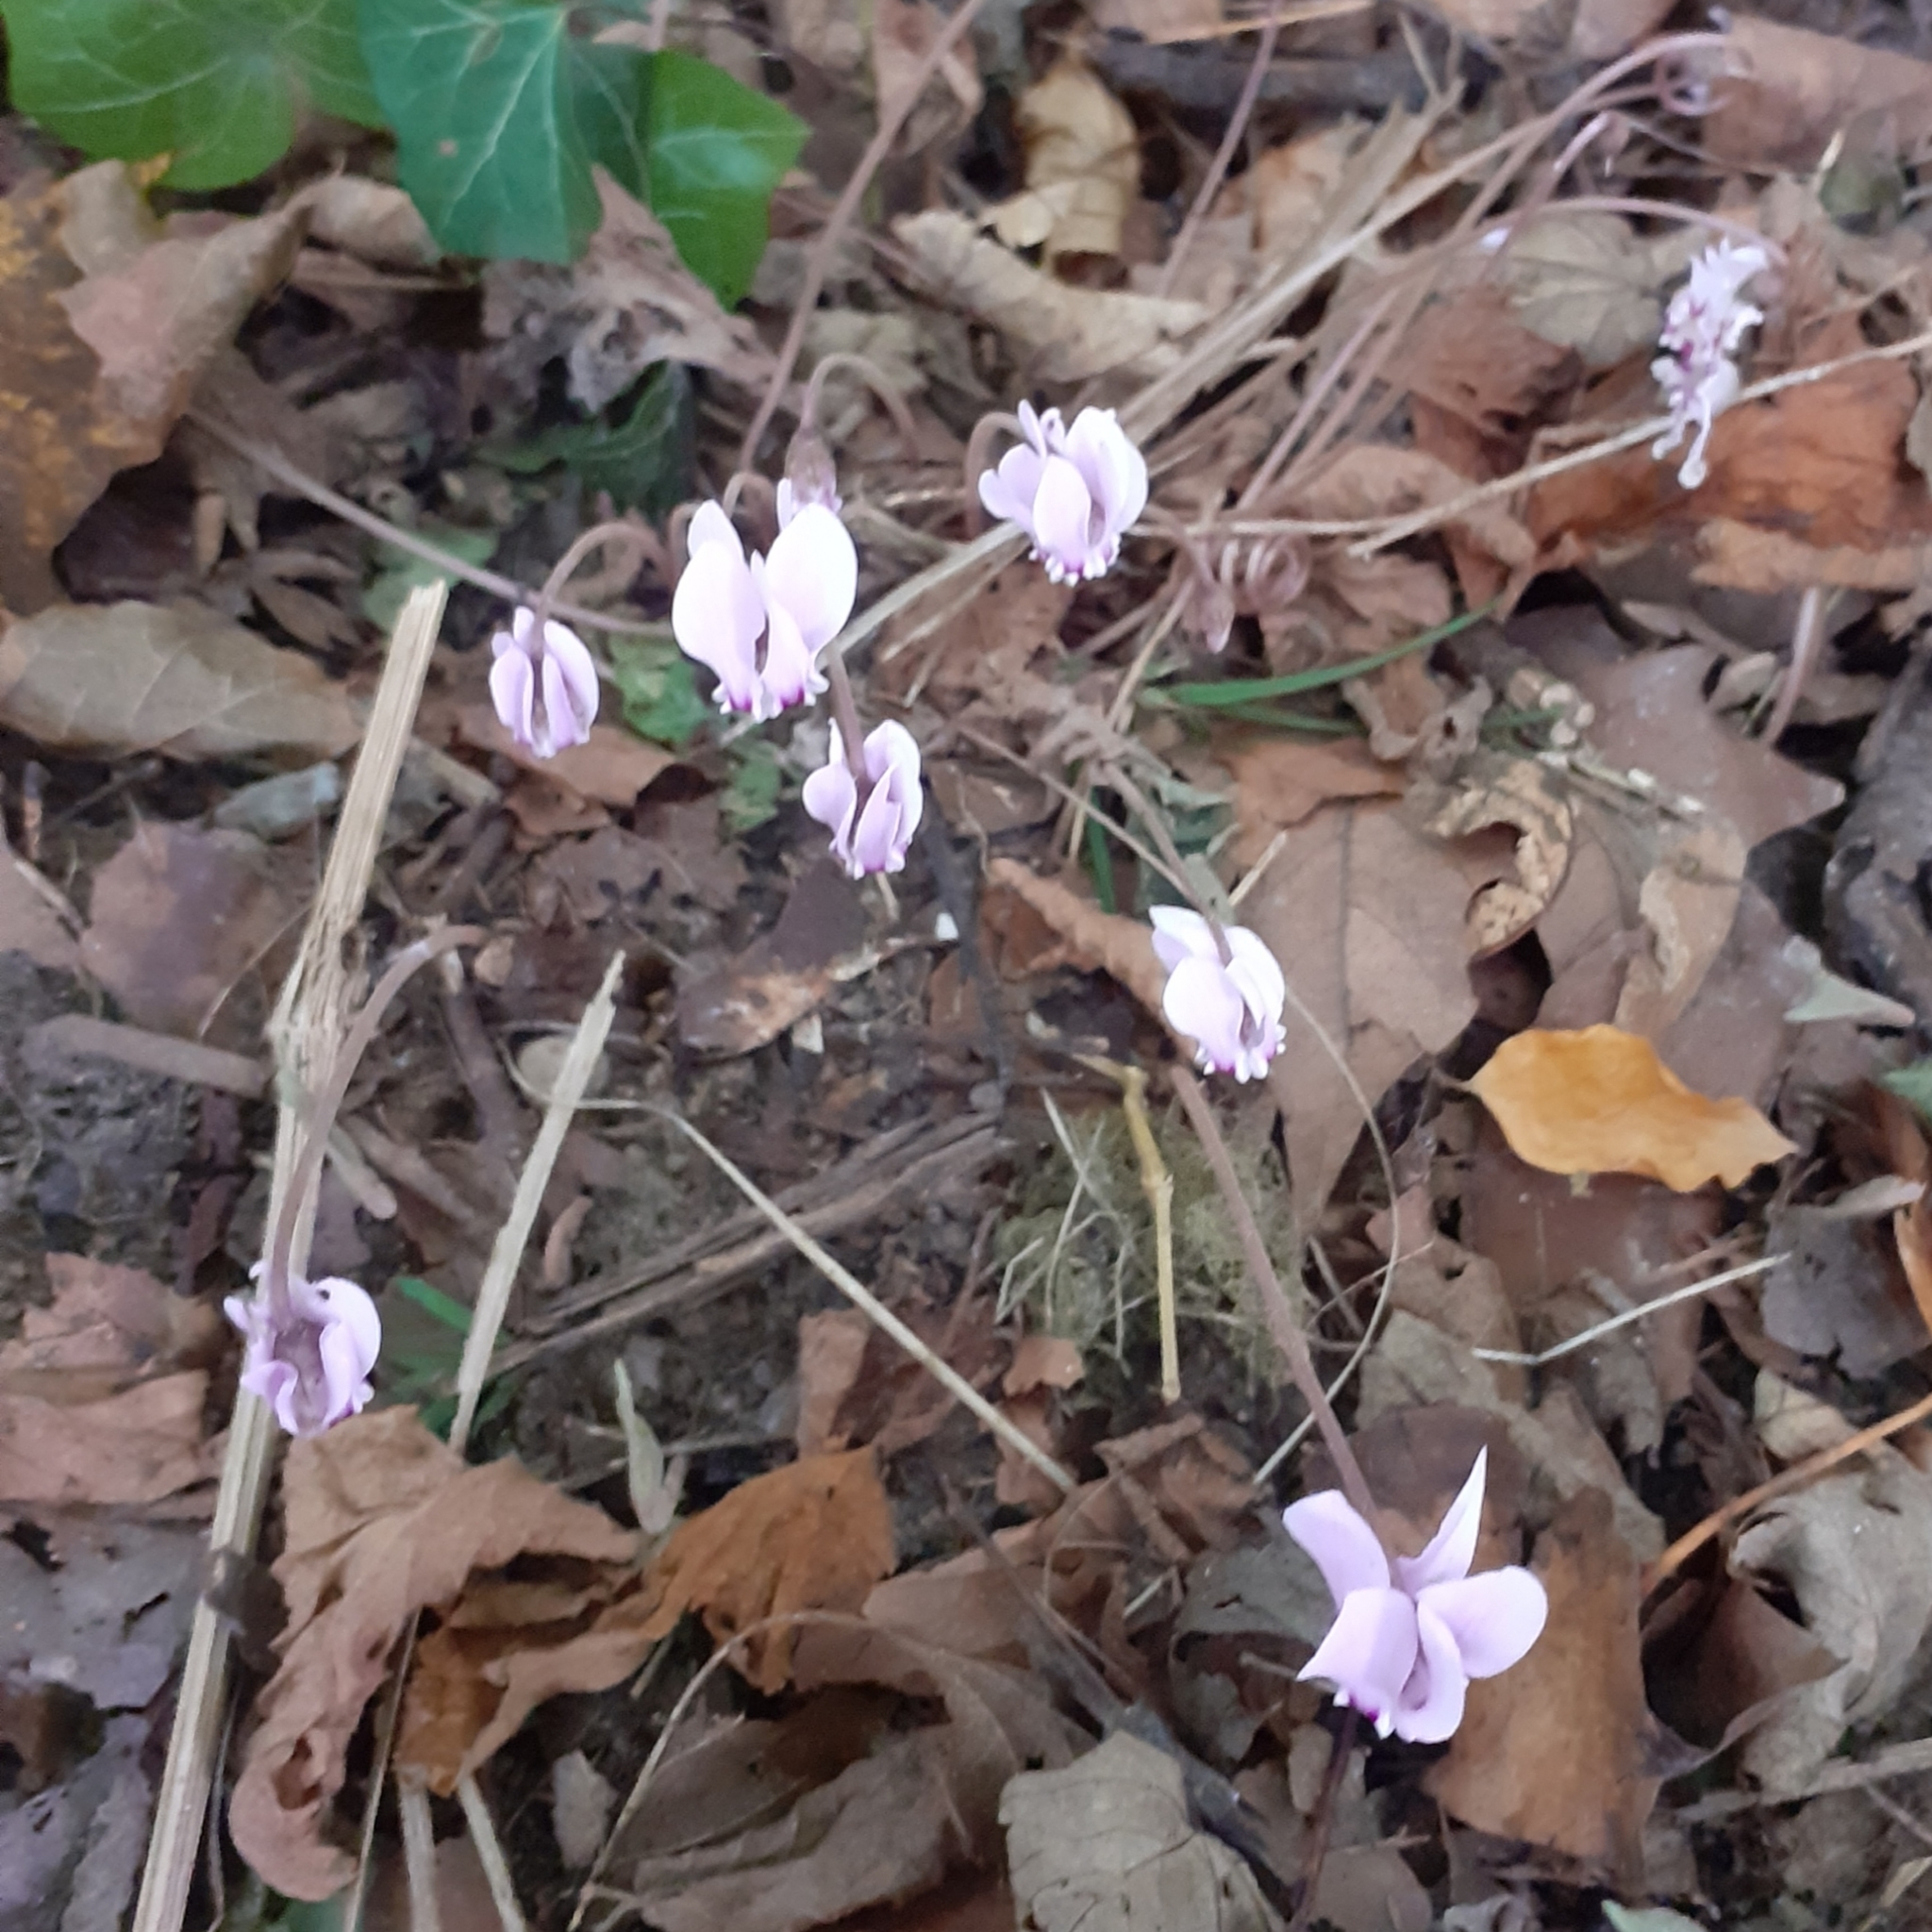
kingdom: Plantae
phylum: Tracheophyta
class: Magnoliopsida
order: Ericales
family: Primulaceae
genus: Cyclamen
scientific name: Cyclamen hederifolium
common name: Sowbread
